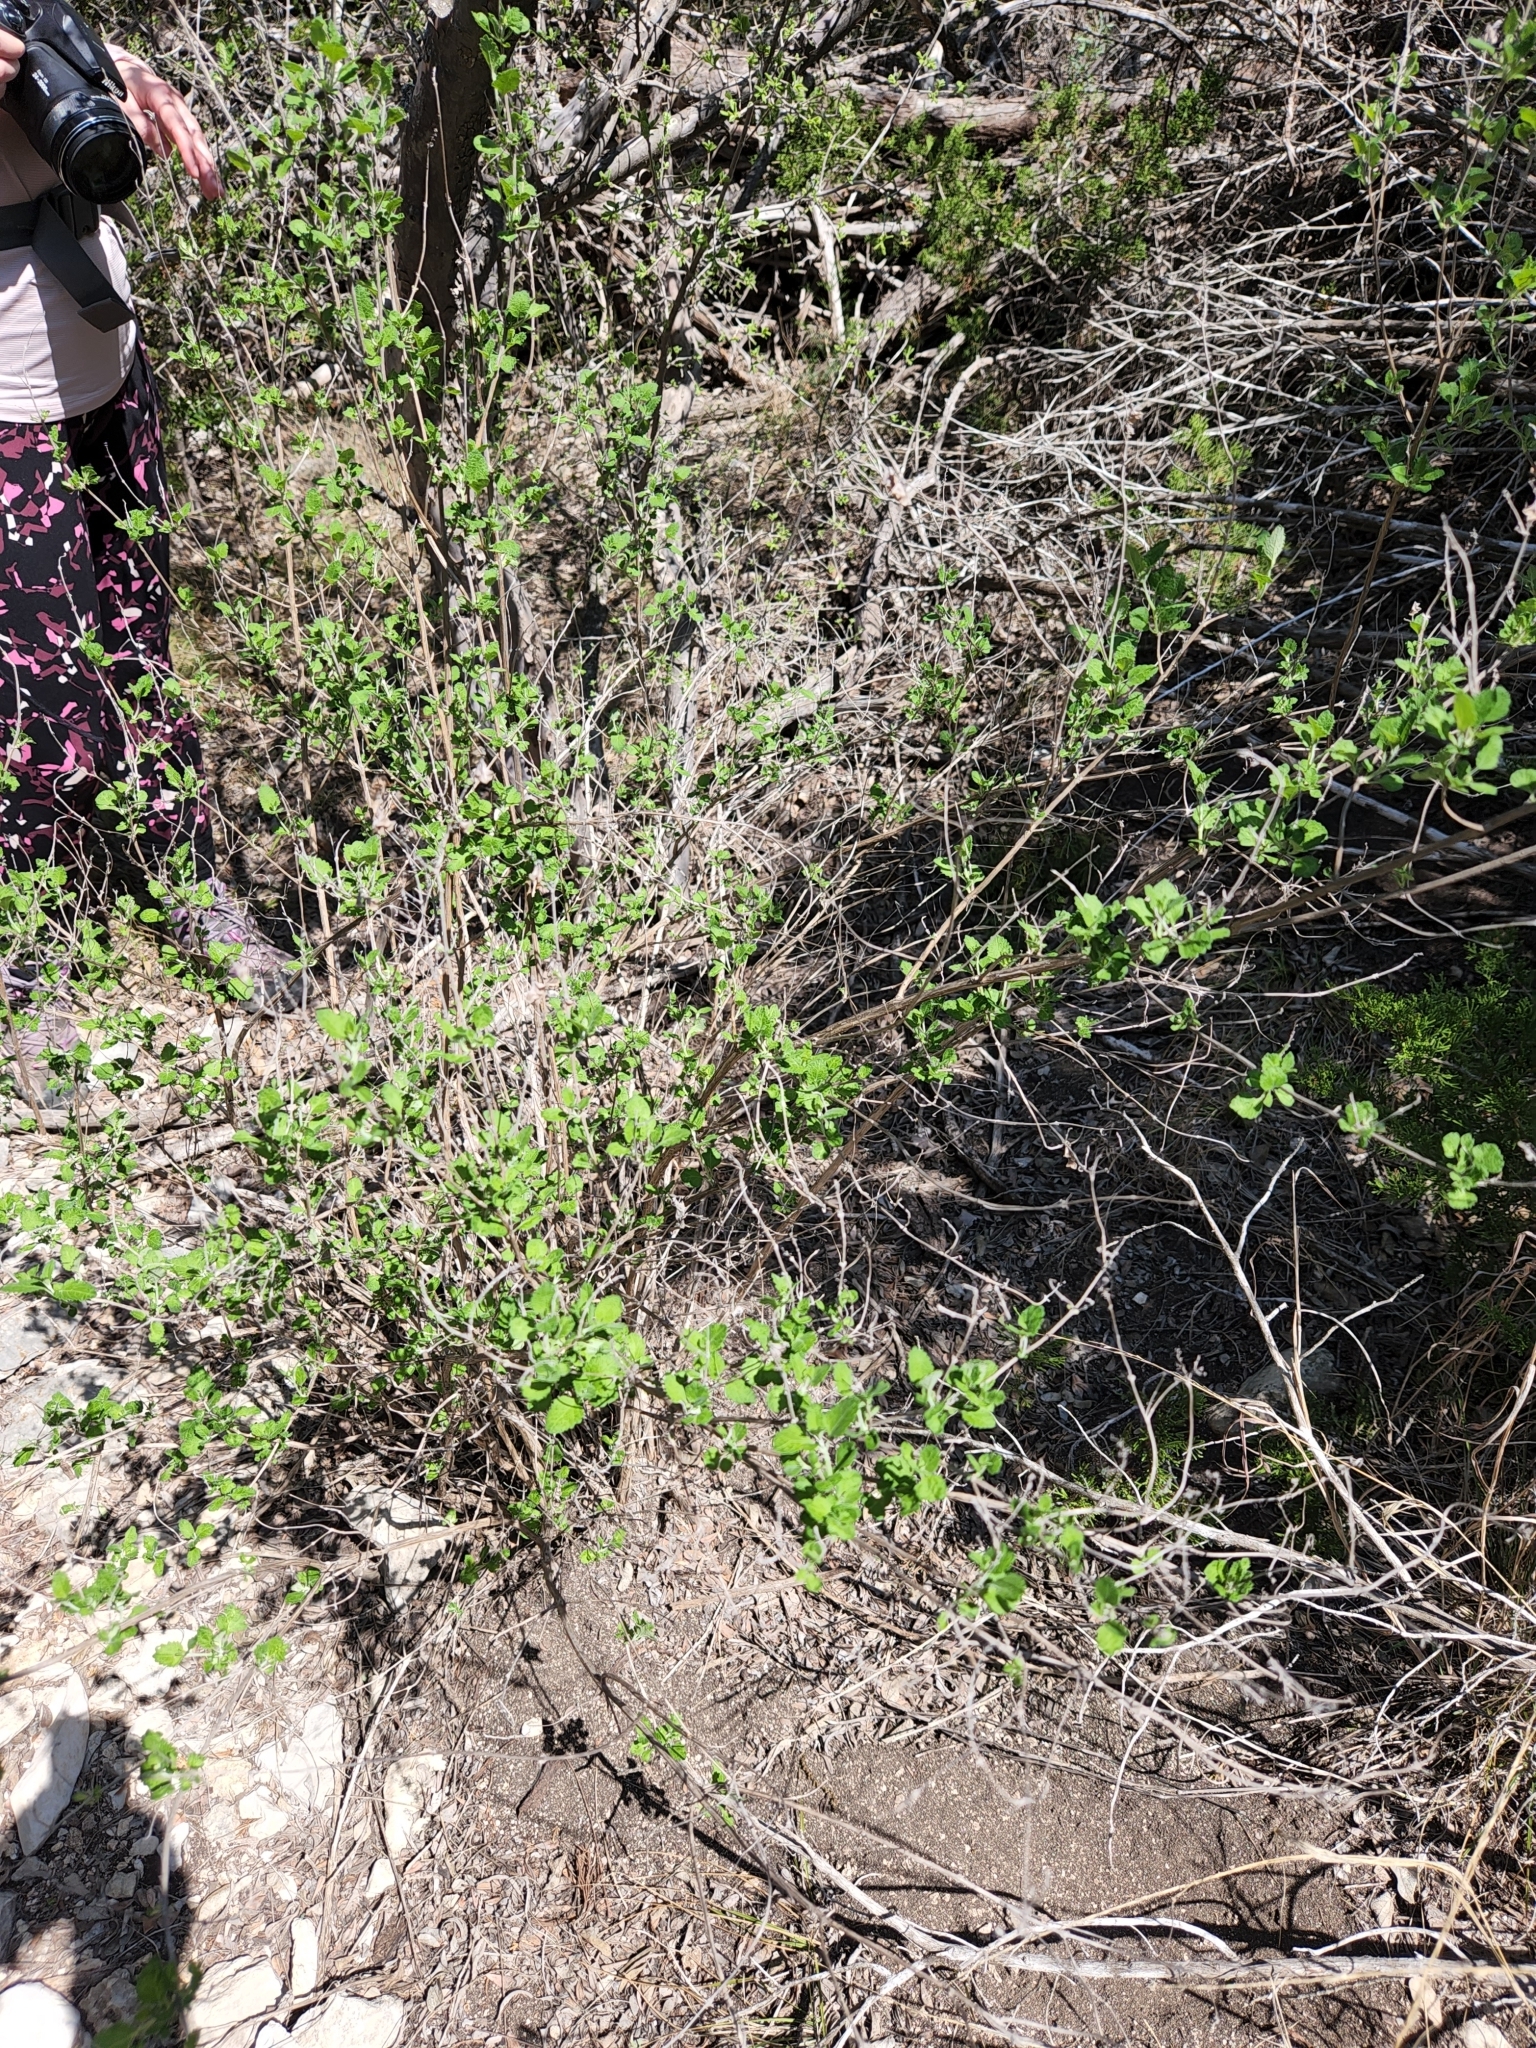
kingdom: Plantae
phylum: Tracheophyta
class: Magnoliopsida
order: Lamiales
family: Lamiaceae
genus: Salvia
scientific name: Salvia ballotiflora
